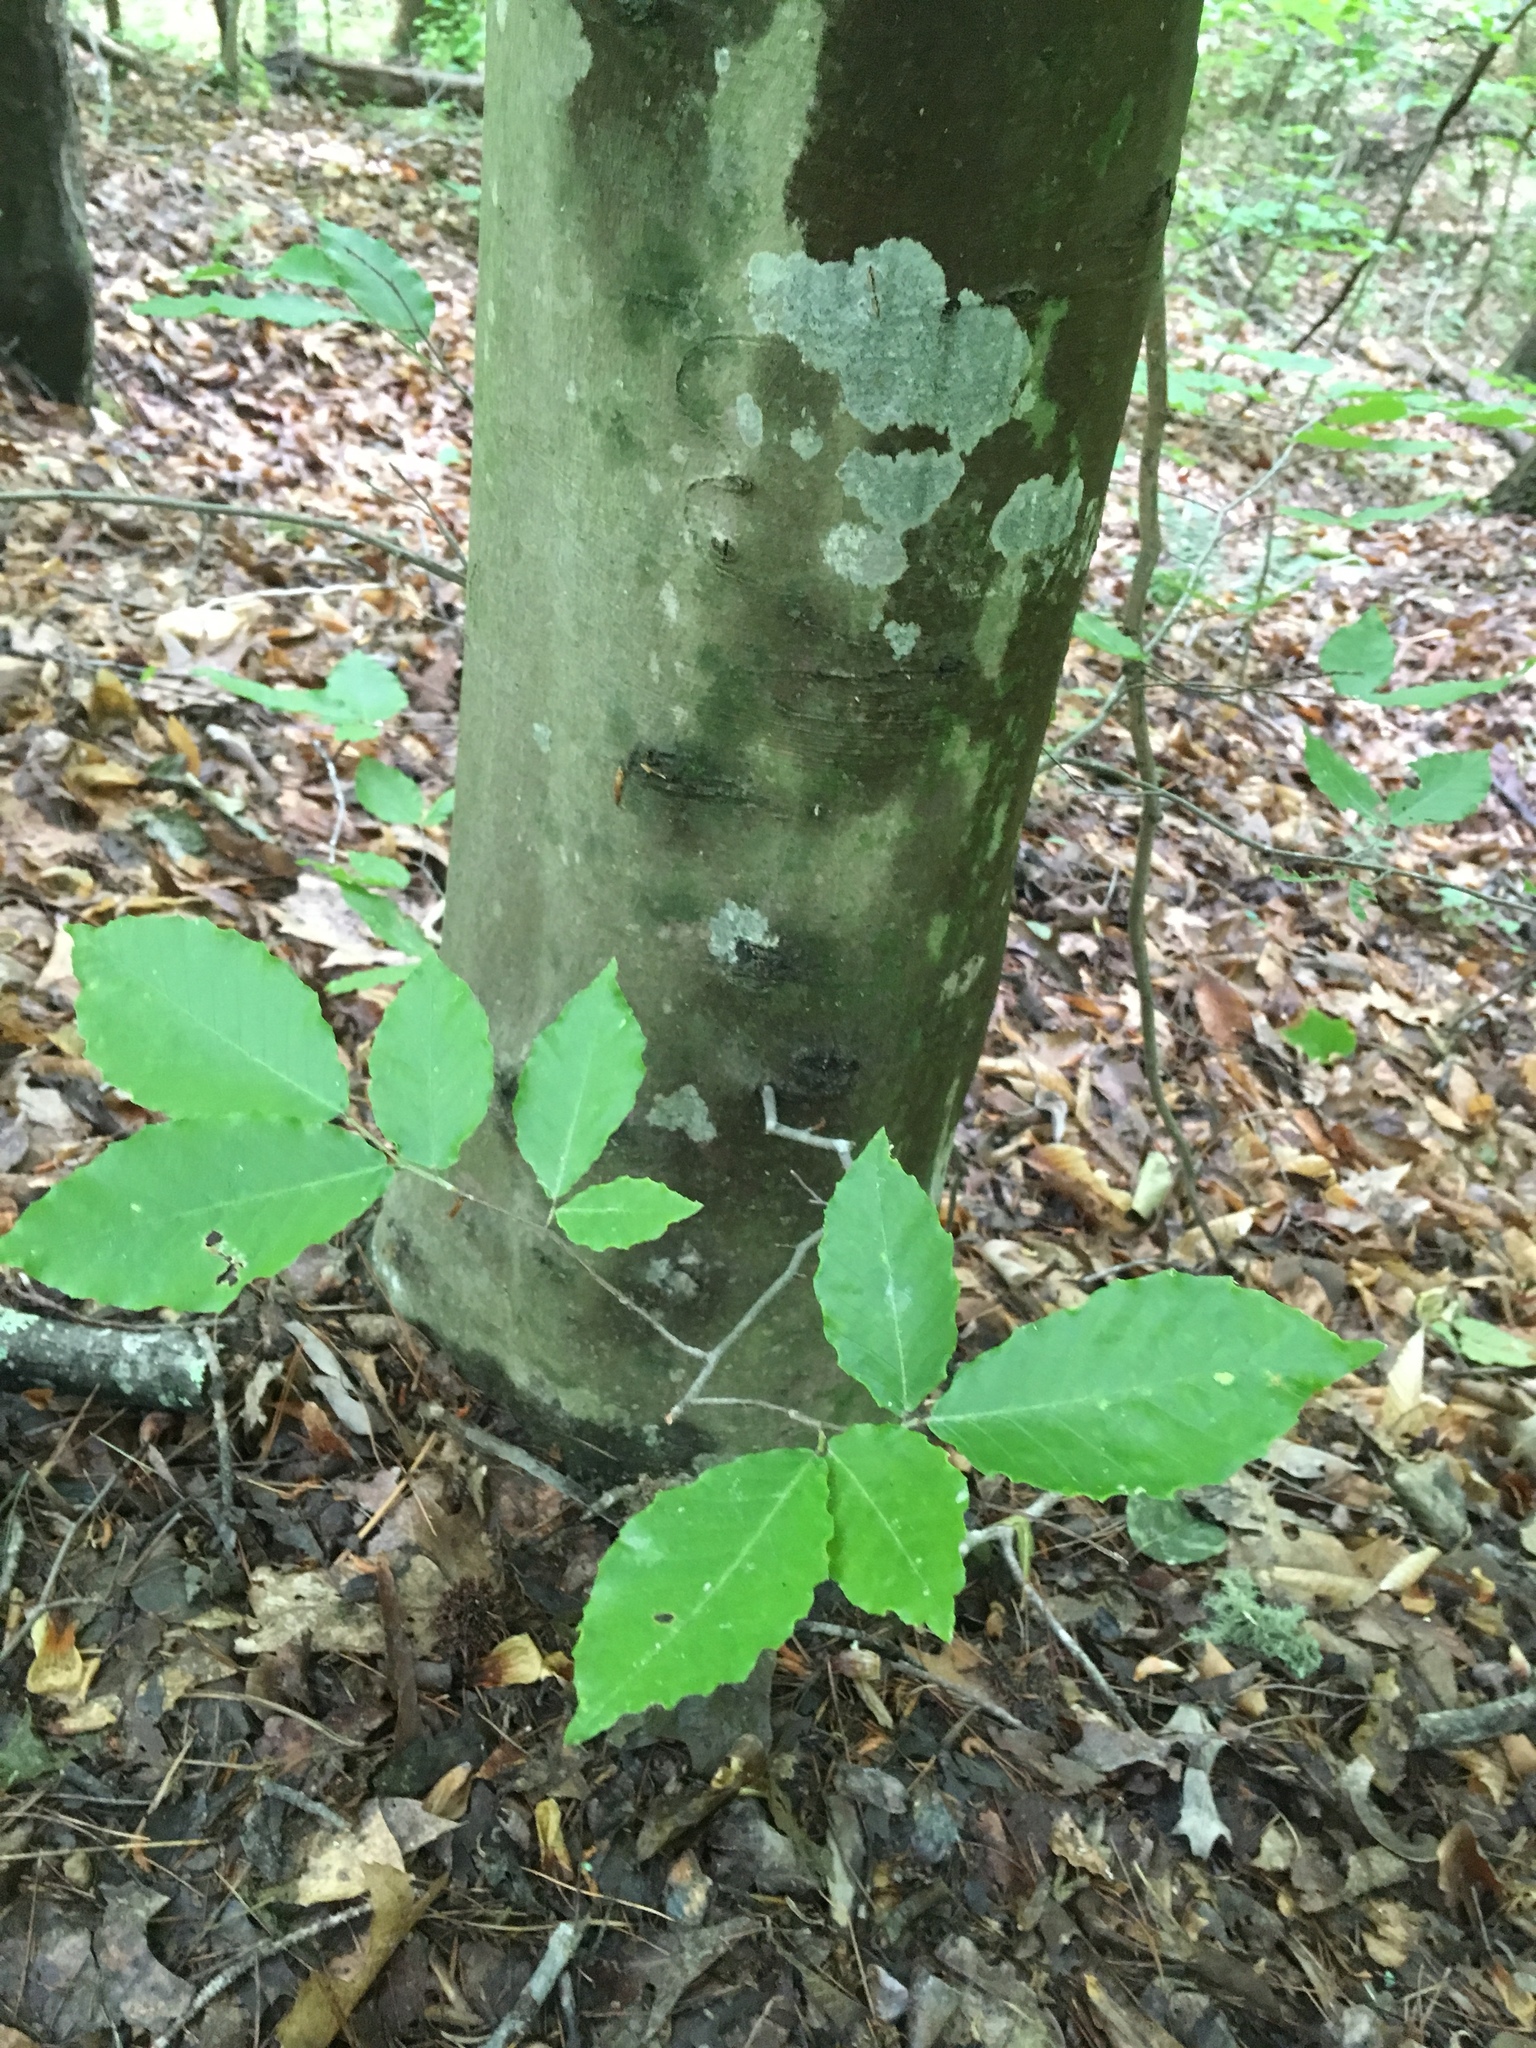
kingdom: Plantae
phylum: Tracheophyta
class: Magnoliopsida
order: Fagales
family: Fagaceae
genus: Fagus
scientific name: Fagus grandifolia
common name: American beech
